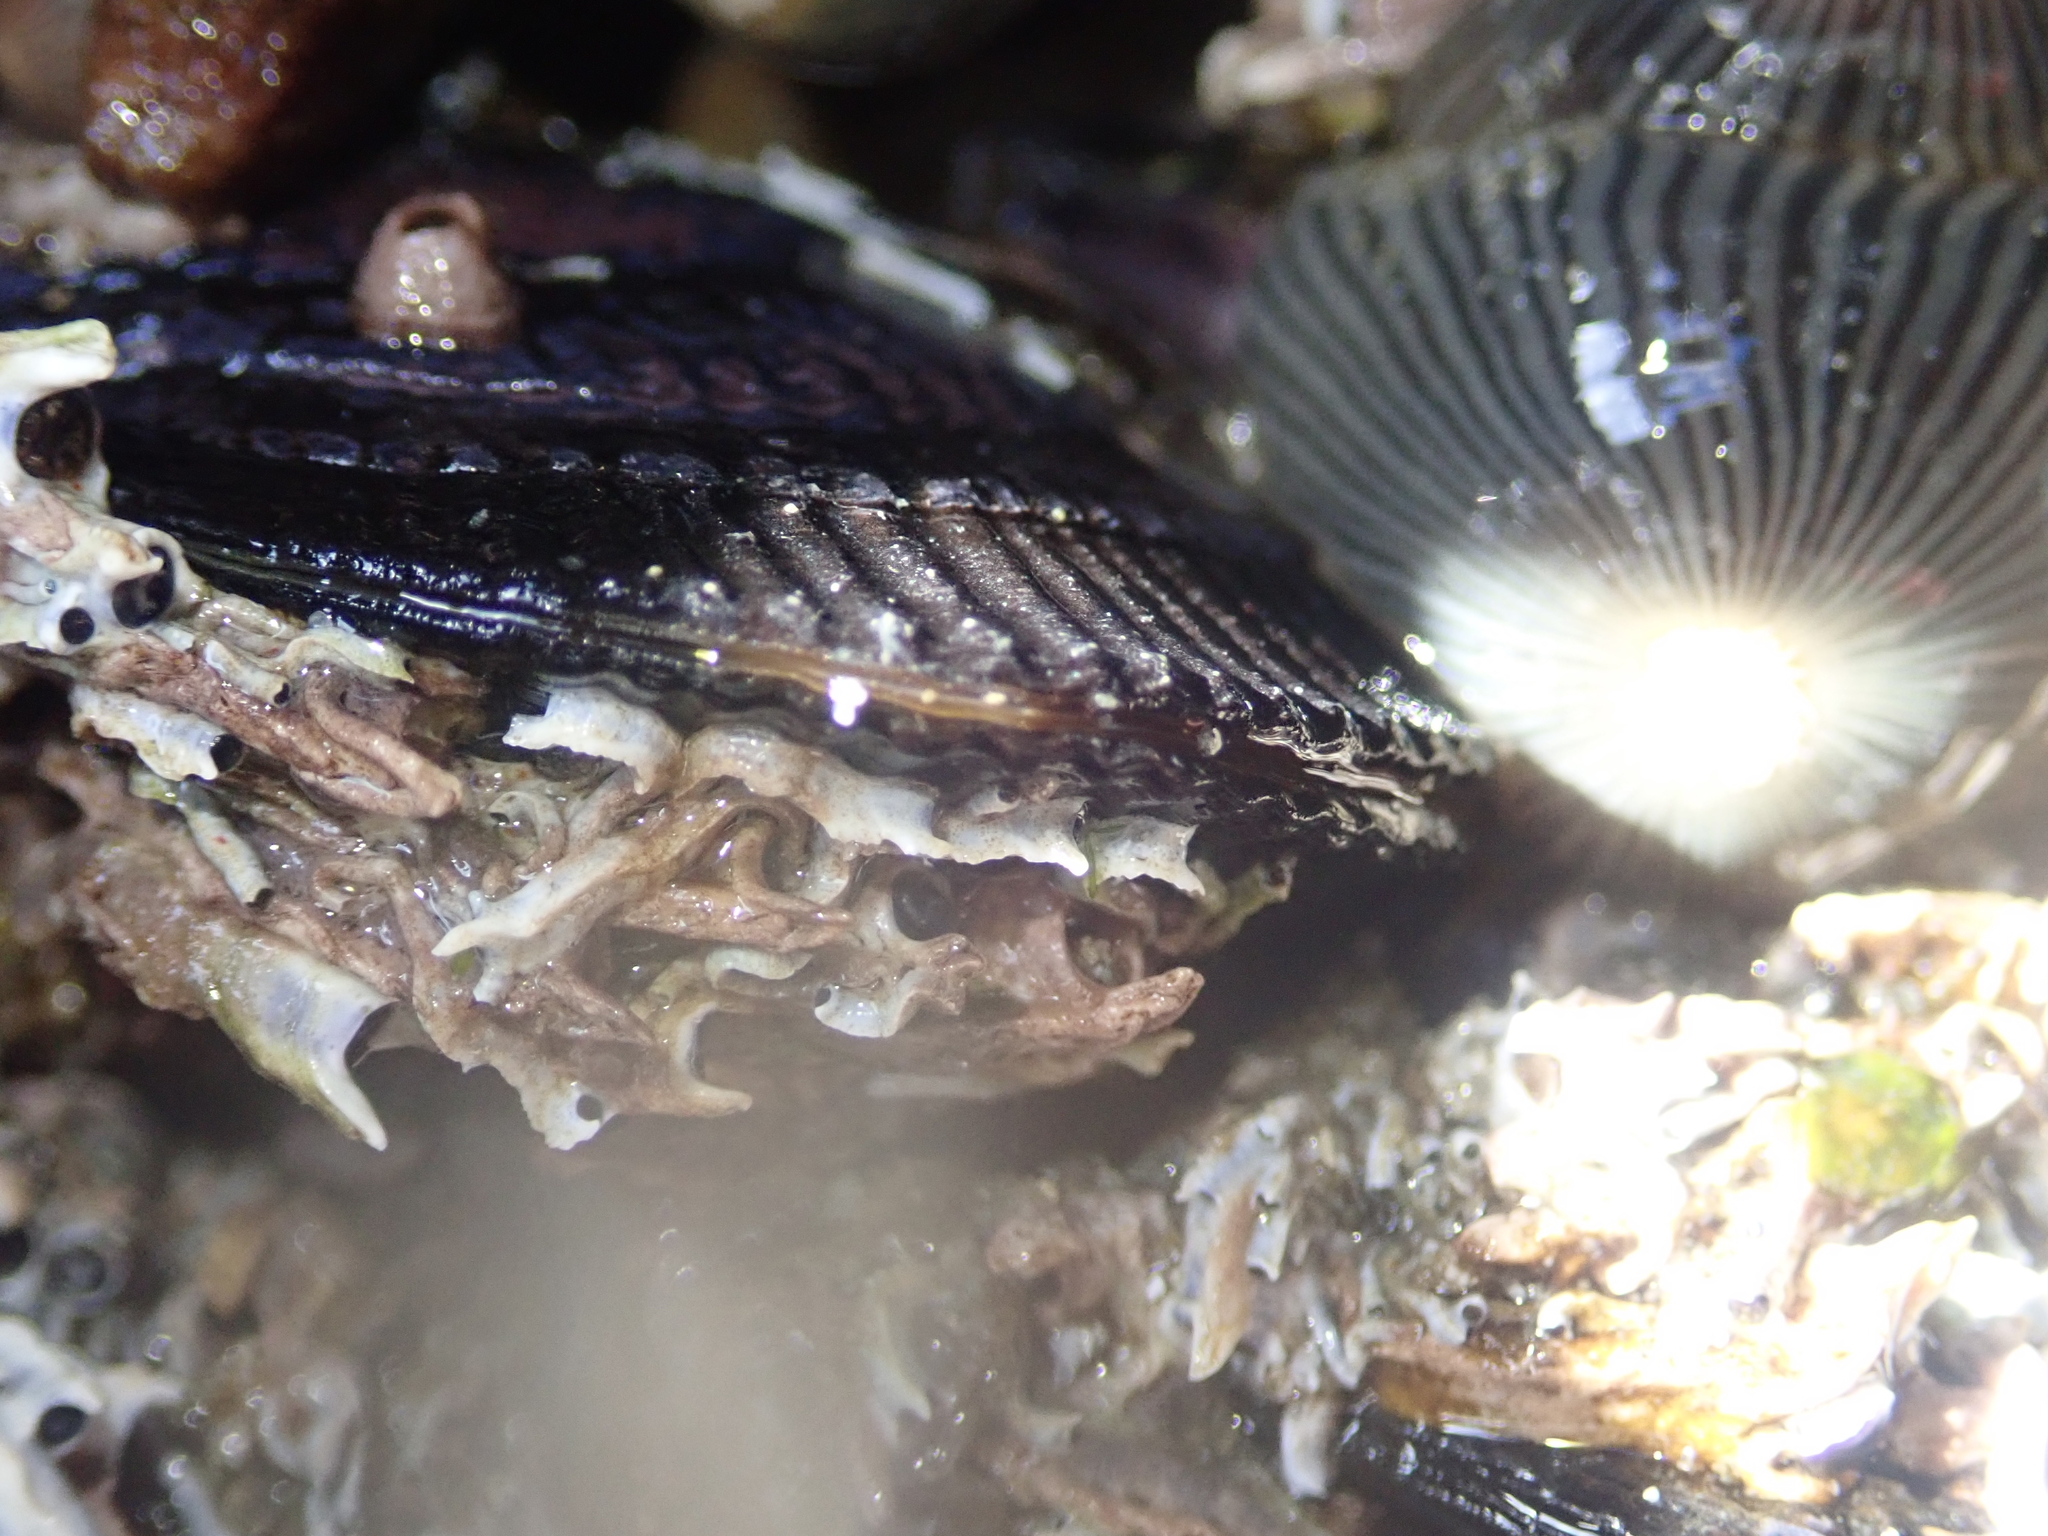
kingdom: Animalia
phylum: Mollusca
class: Bivalvia
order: Mytilida
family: Mytilidae
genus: Aulacomya
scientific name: Aulacomya maoriana
